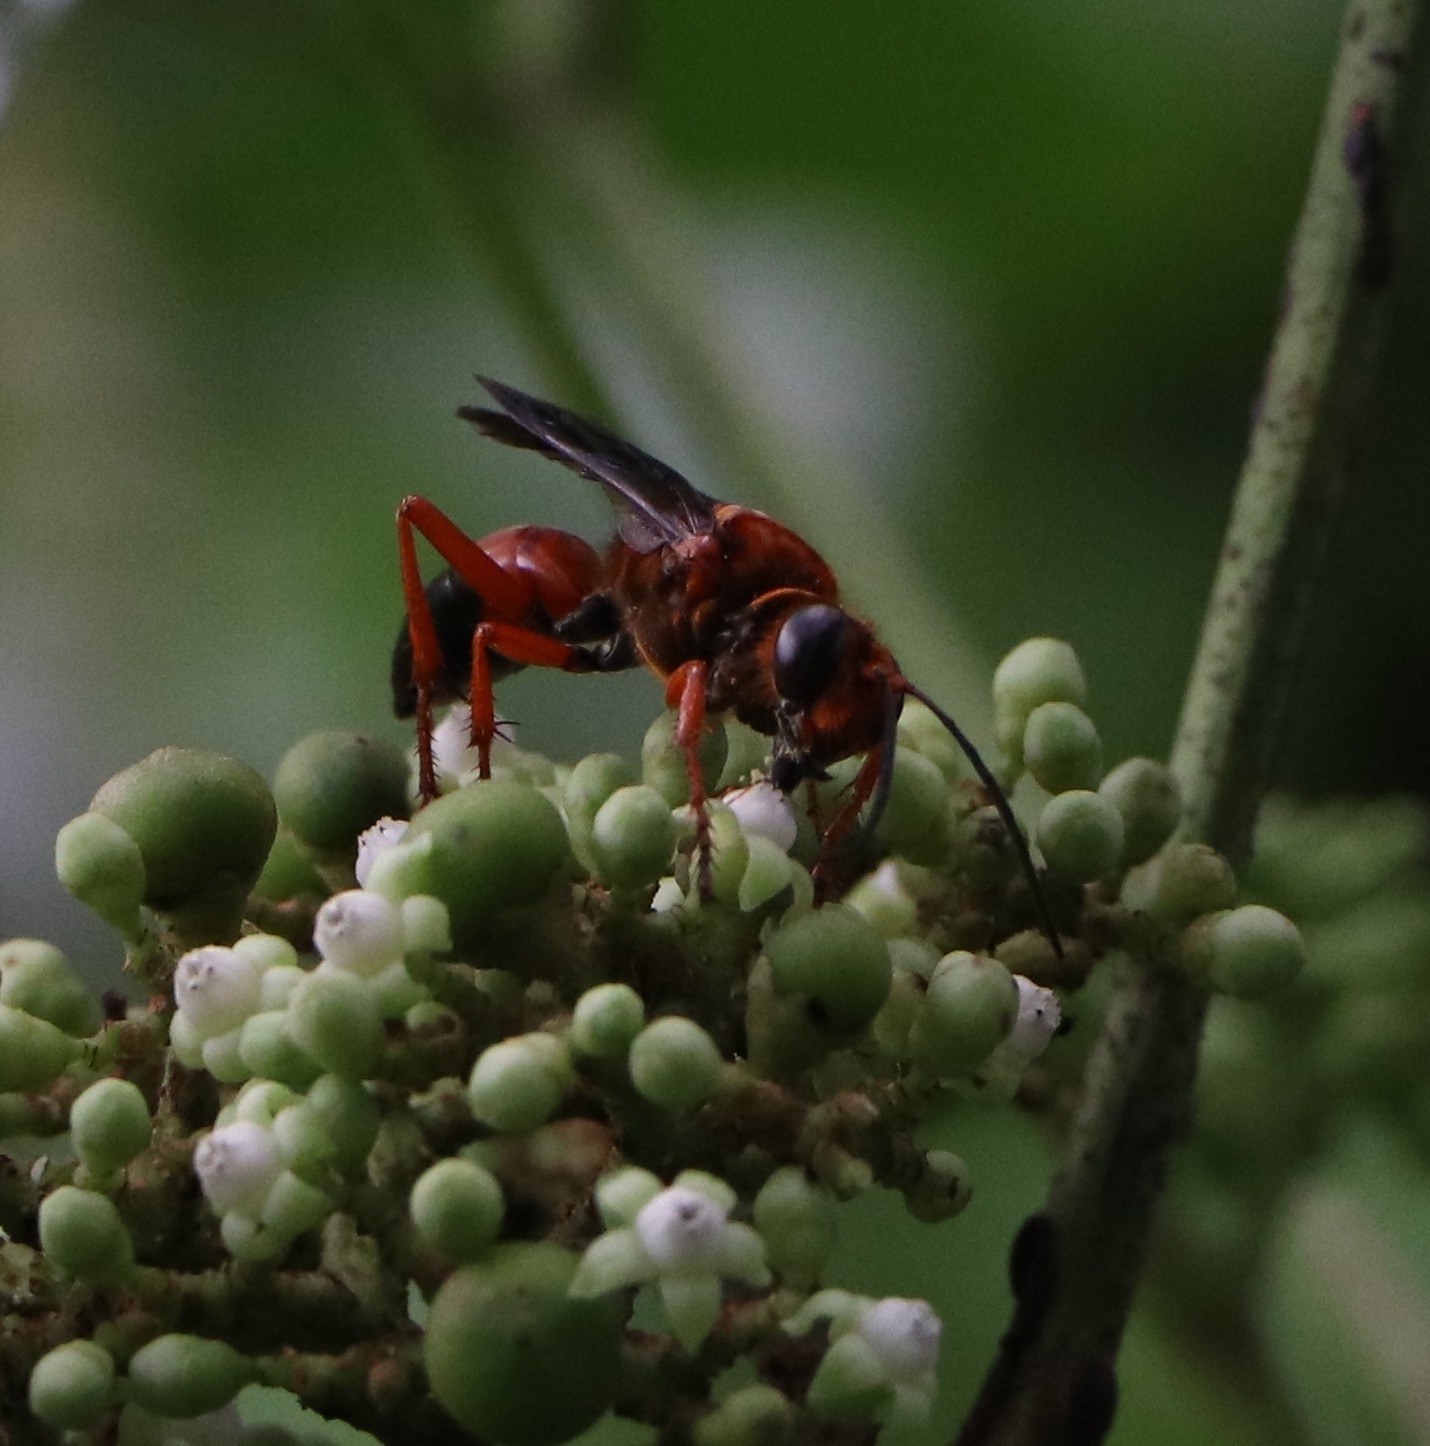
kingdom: Animalia
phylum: Arthropoda
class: Insecta
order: Hymenoptera
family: Sphecidae
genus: Sphex
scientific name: Sphex sericeus
